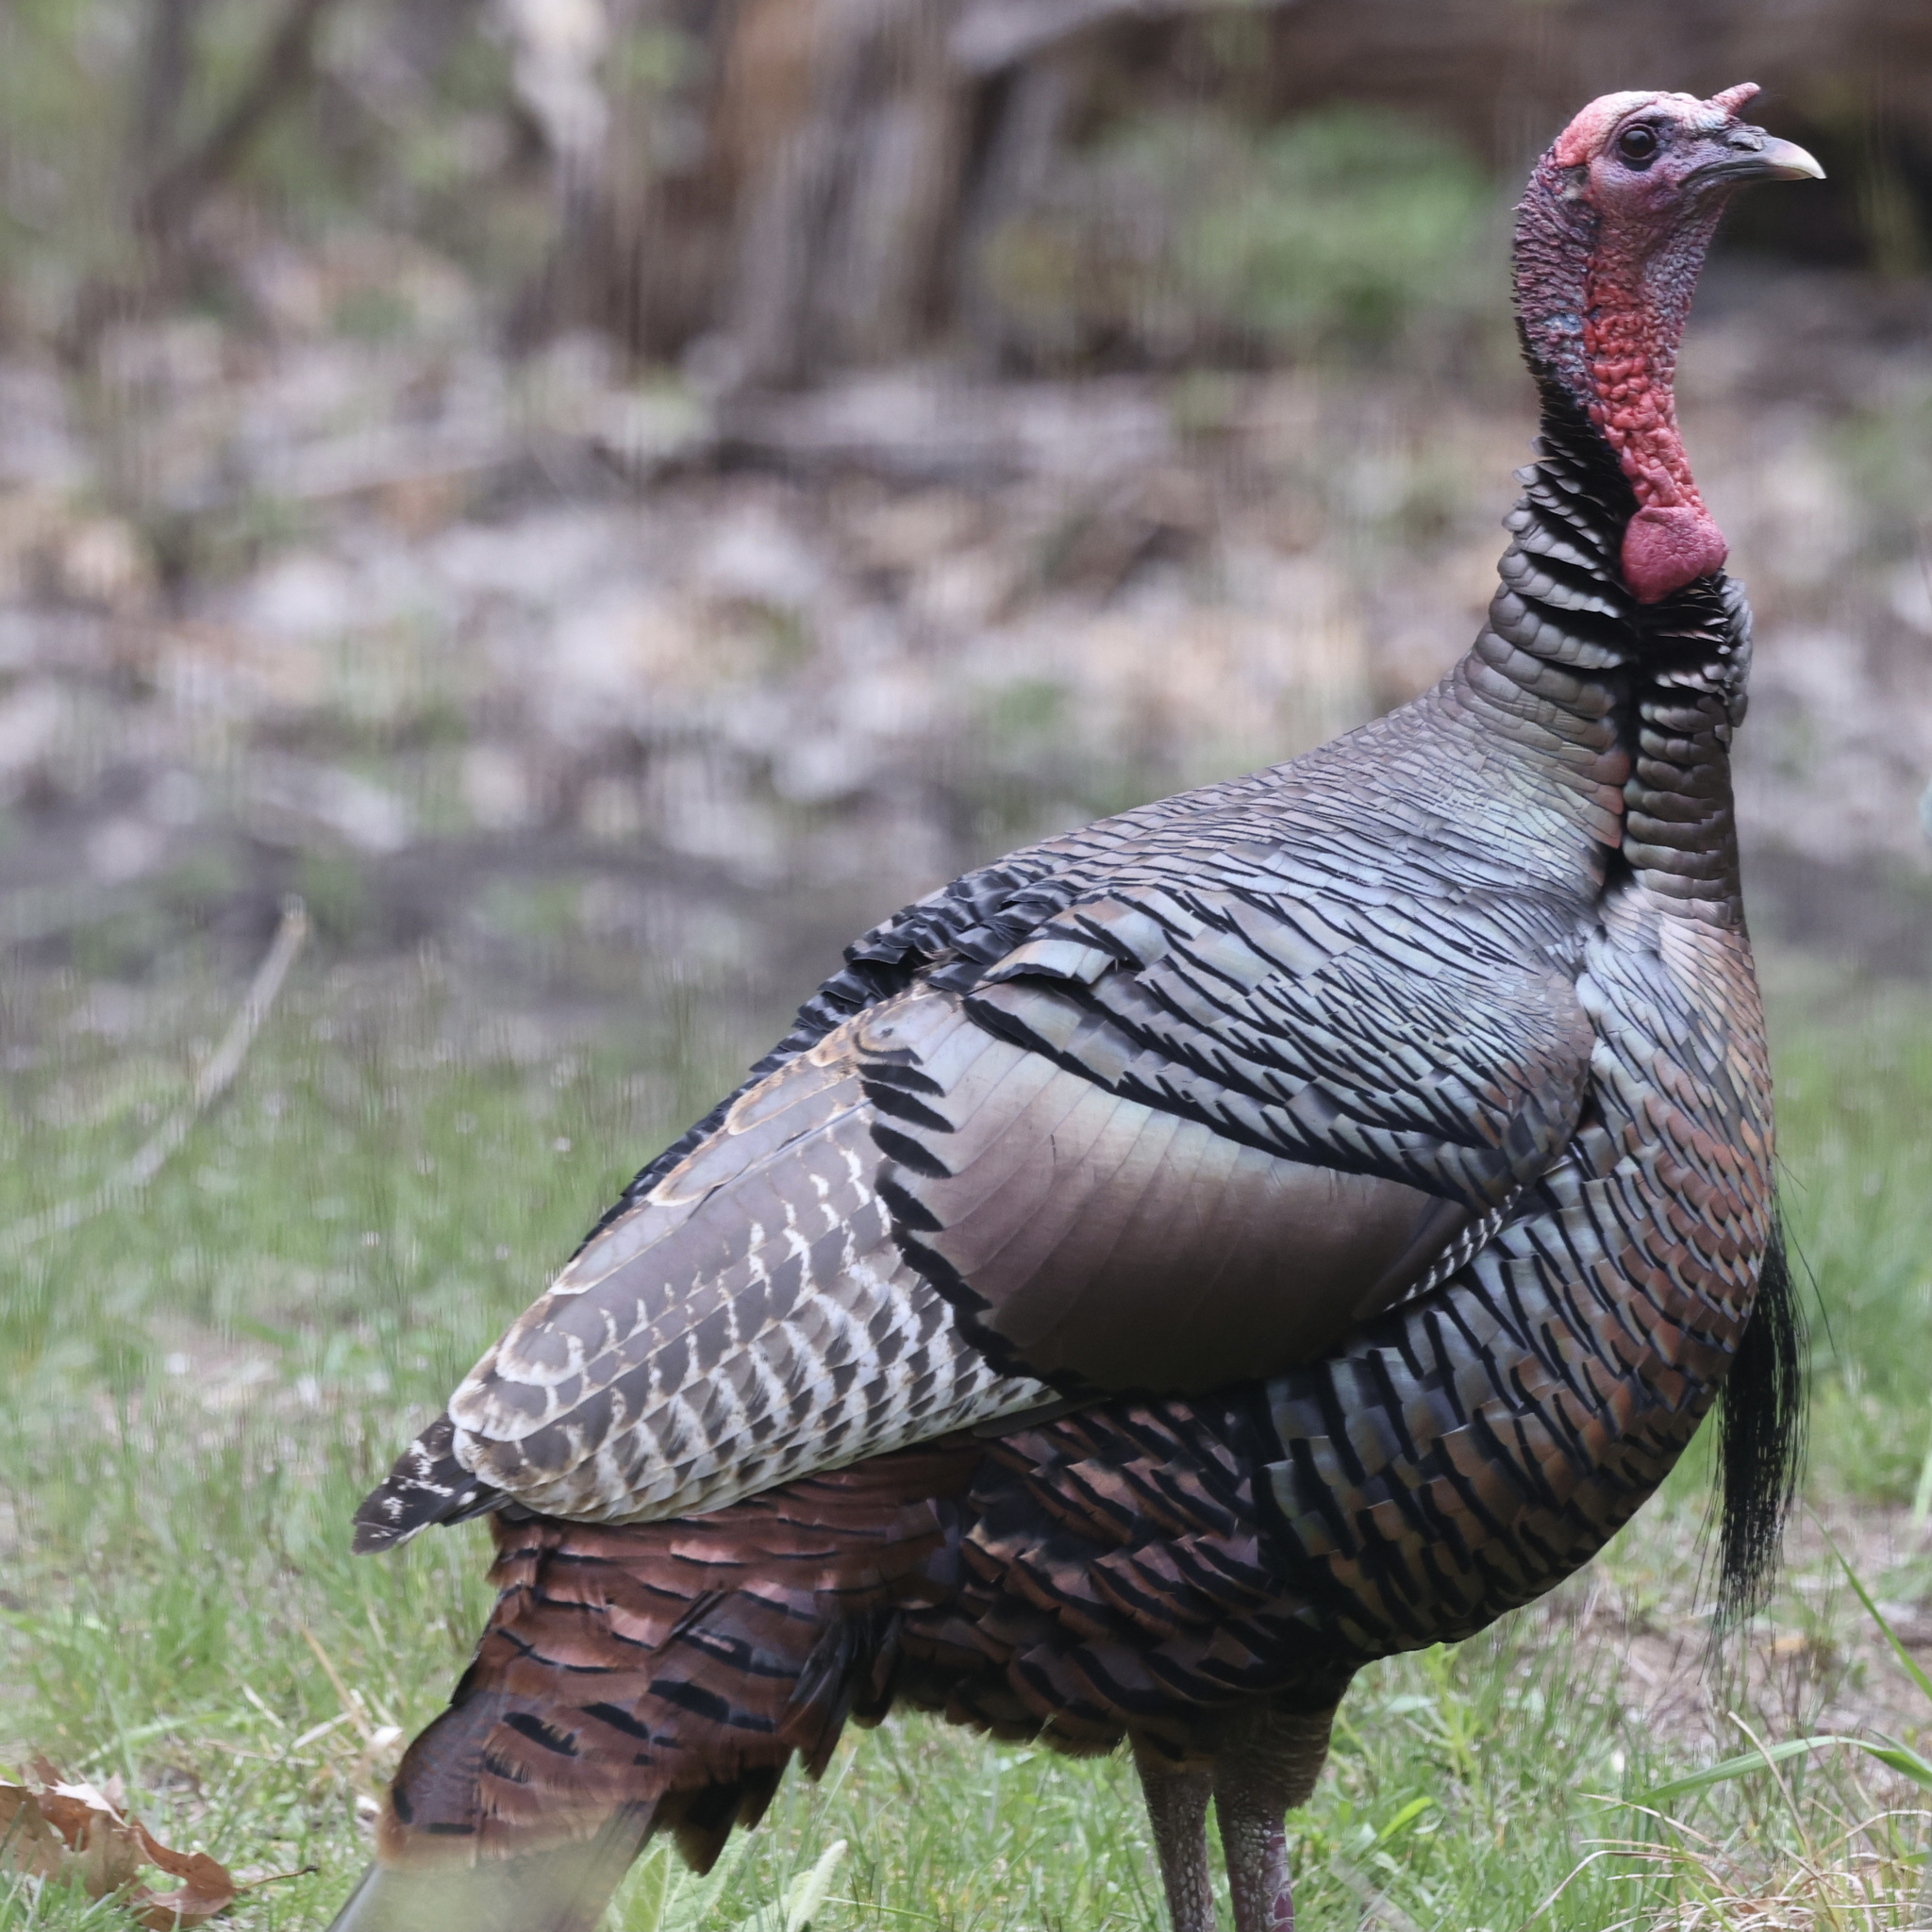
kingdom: Animalia
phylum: Chordata
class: Aves
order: Galliformes
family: Phasianidae
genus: Meleagris
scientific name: Meleagris gallopavo
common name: Wild turkey
